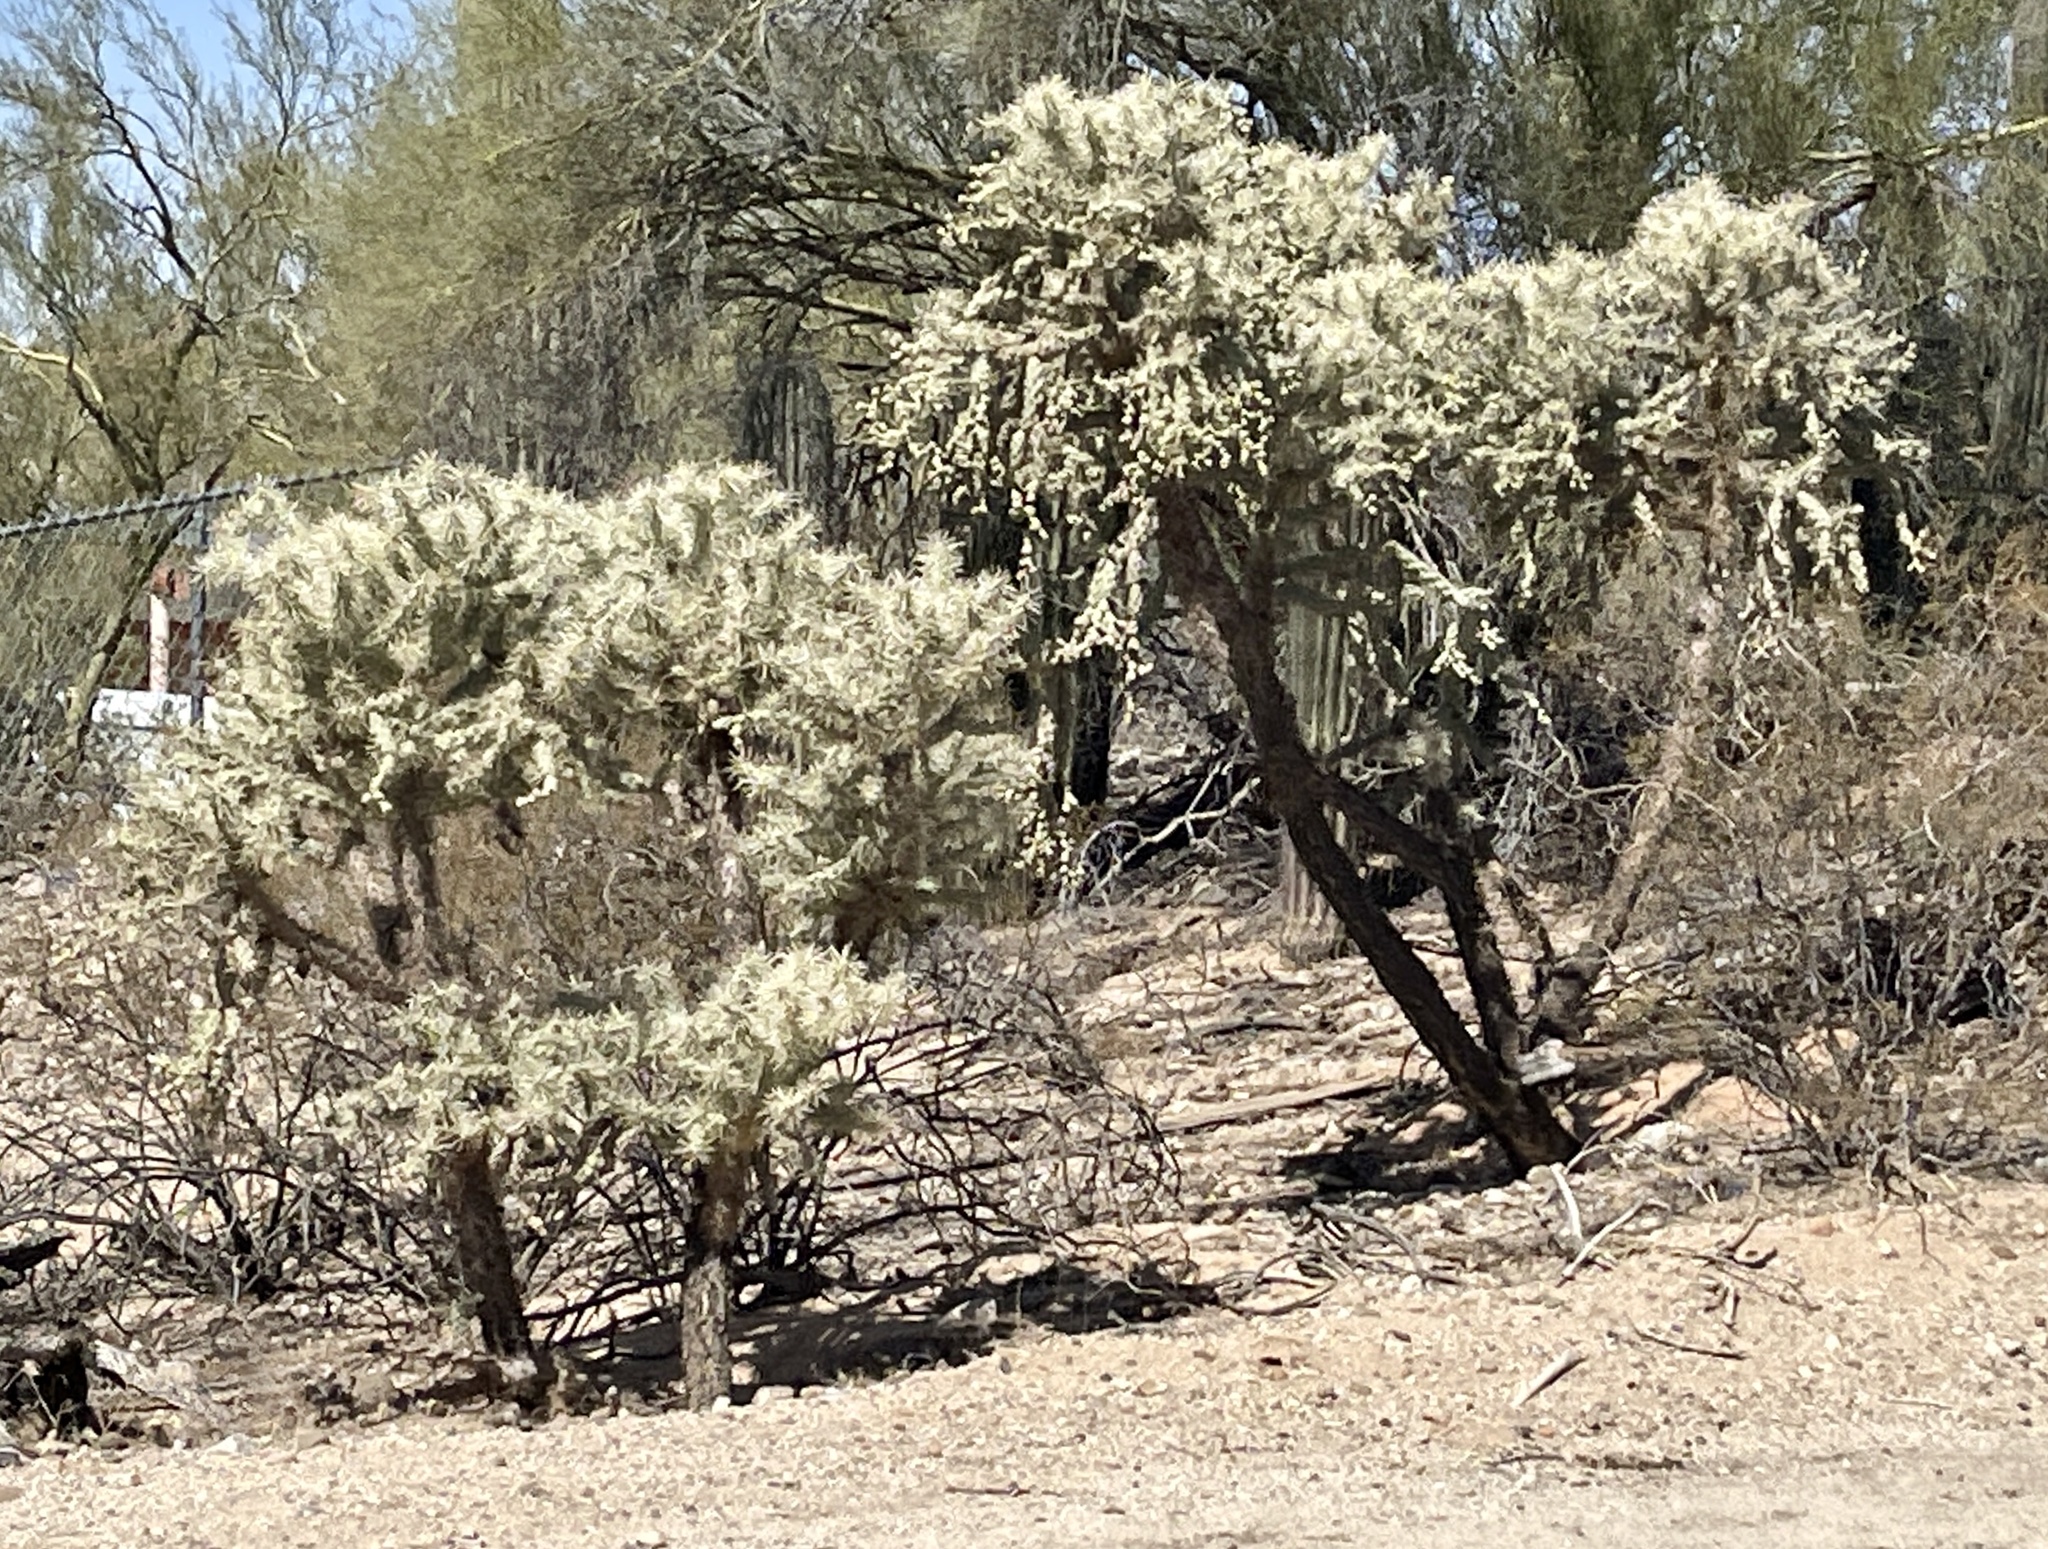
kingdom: Plantae
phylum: Tracheophyta
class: Magnoliopsida
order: Caryophyllales
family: Cactaceae
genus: Cylindropuntia
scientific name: Cylindropuntia fulgida
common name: Jumping cholla
